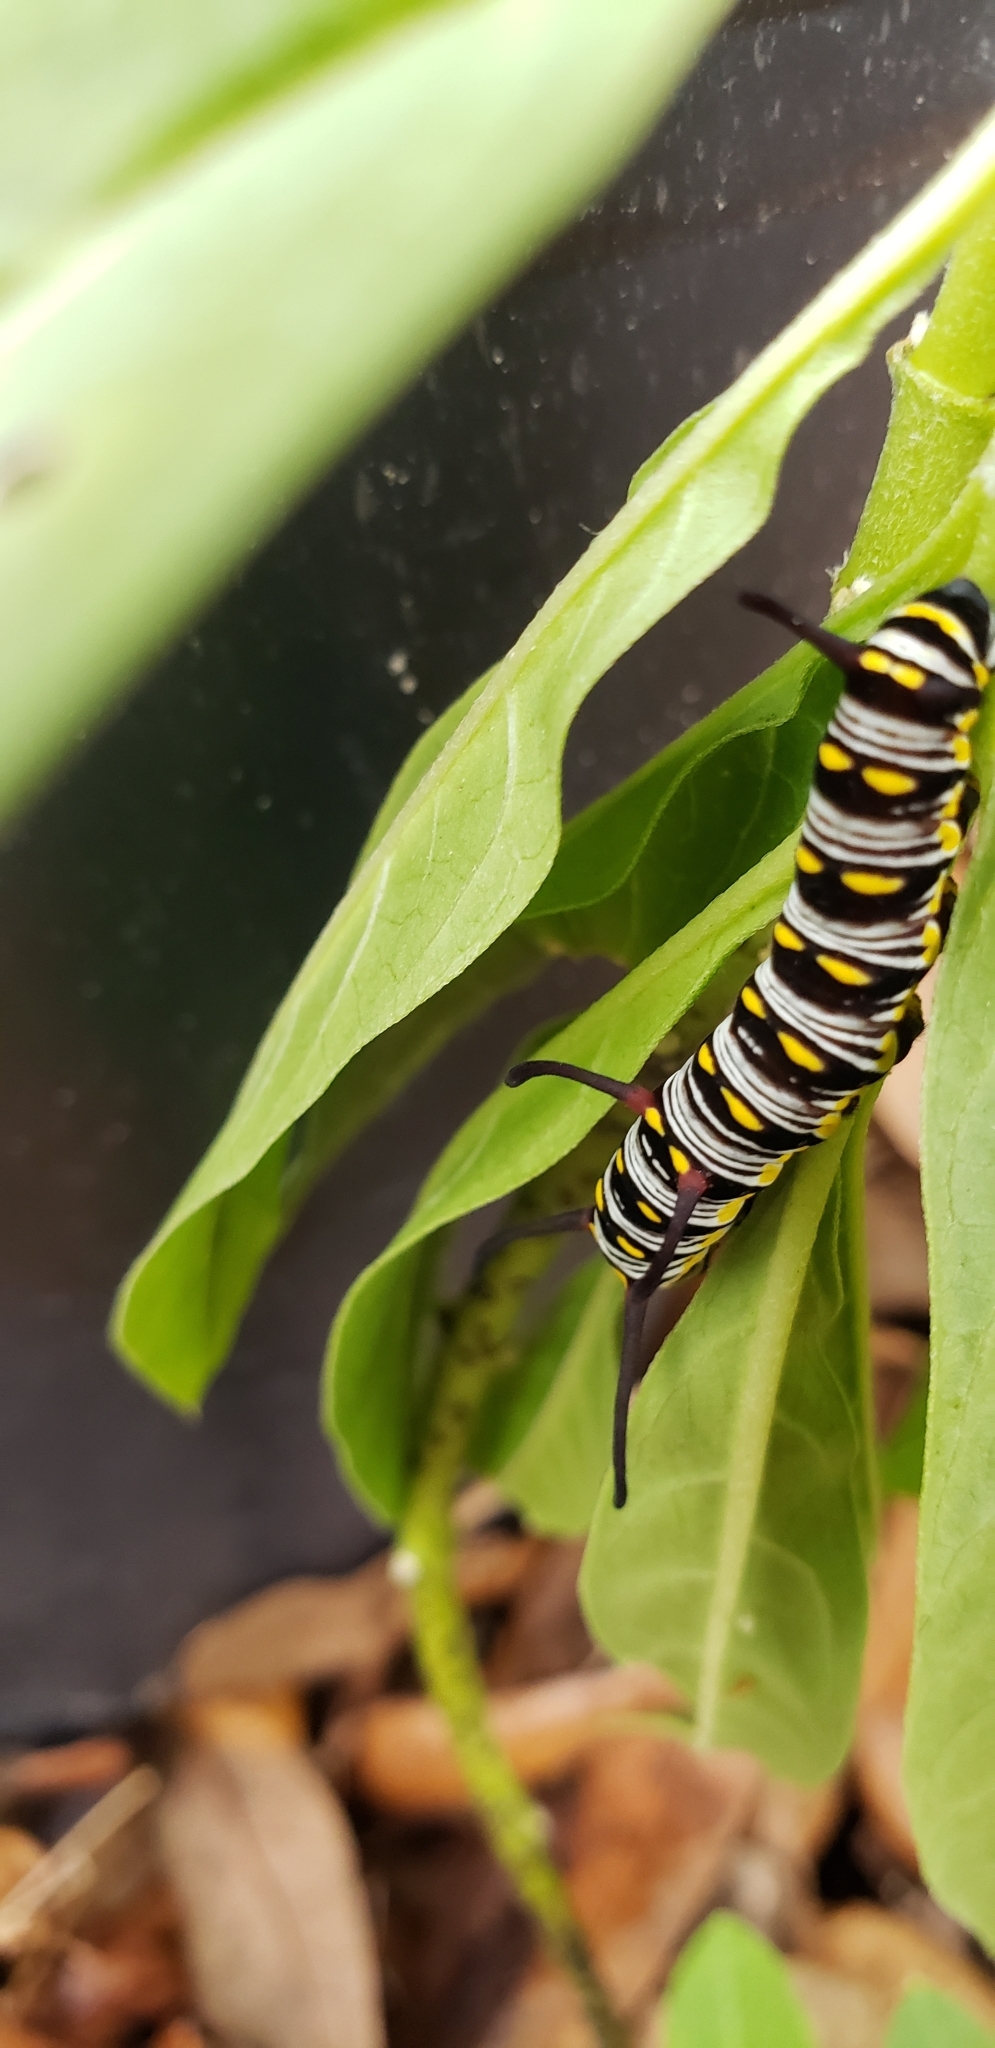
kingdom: Animalia
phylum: Arthropoda
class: Insecta
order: Lepidoptera
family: Nymphalidae
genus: Danaus
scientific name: Danaus gilippus
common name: Queen
